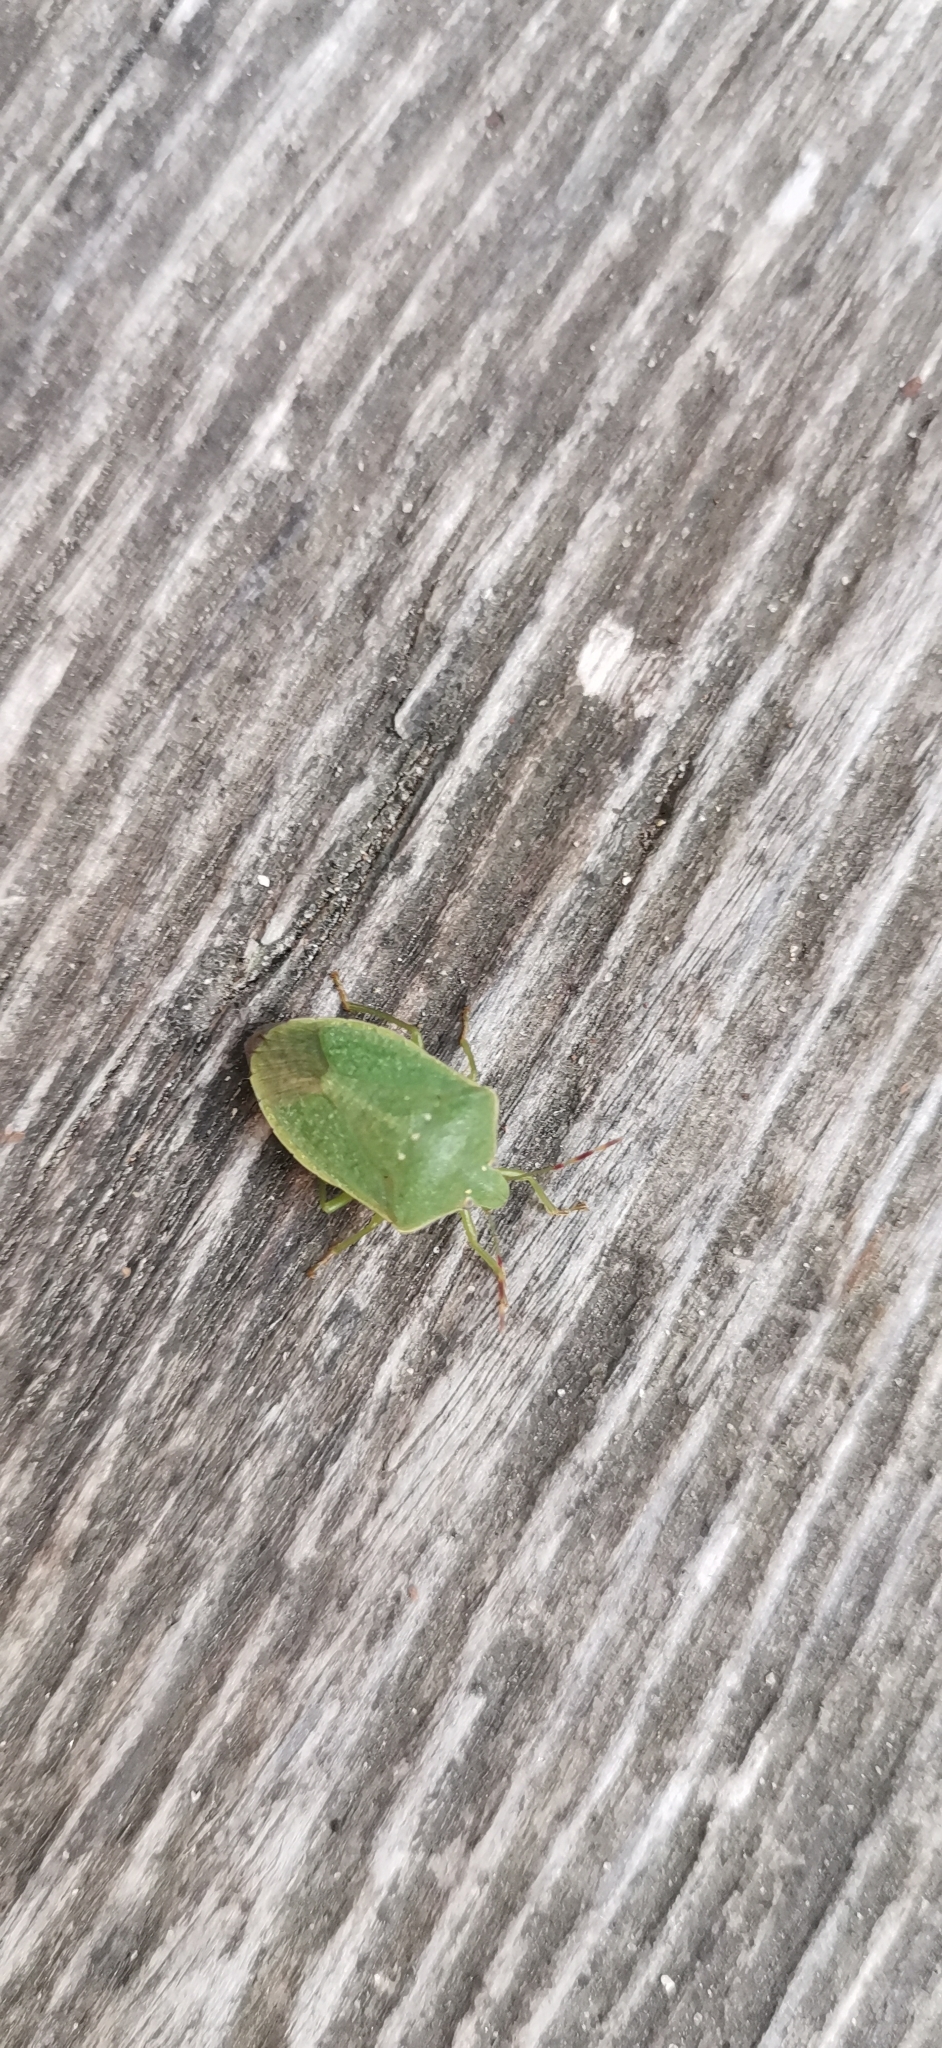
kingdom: Animalia
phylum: Arthropoda
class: Insecta
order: Hemiptera
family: Pentatomidae
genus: Nezara
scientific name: Nezara viridula
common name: Southern green stink bug
